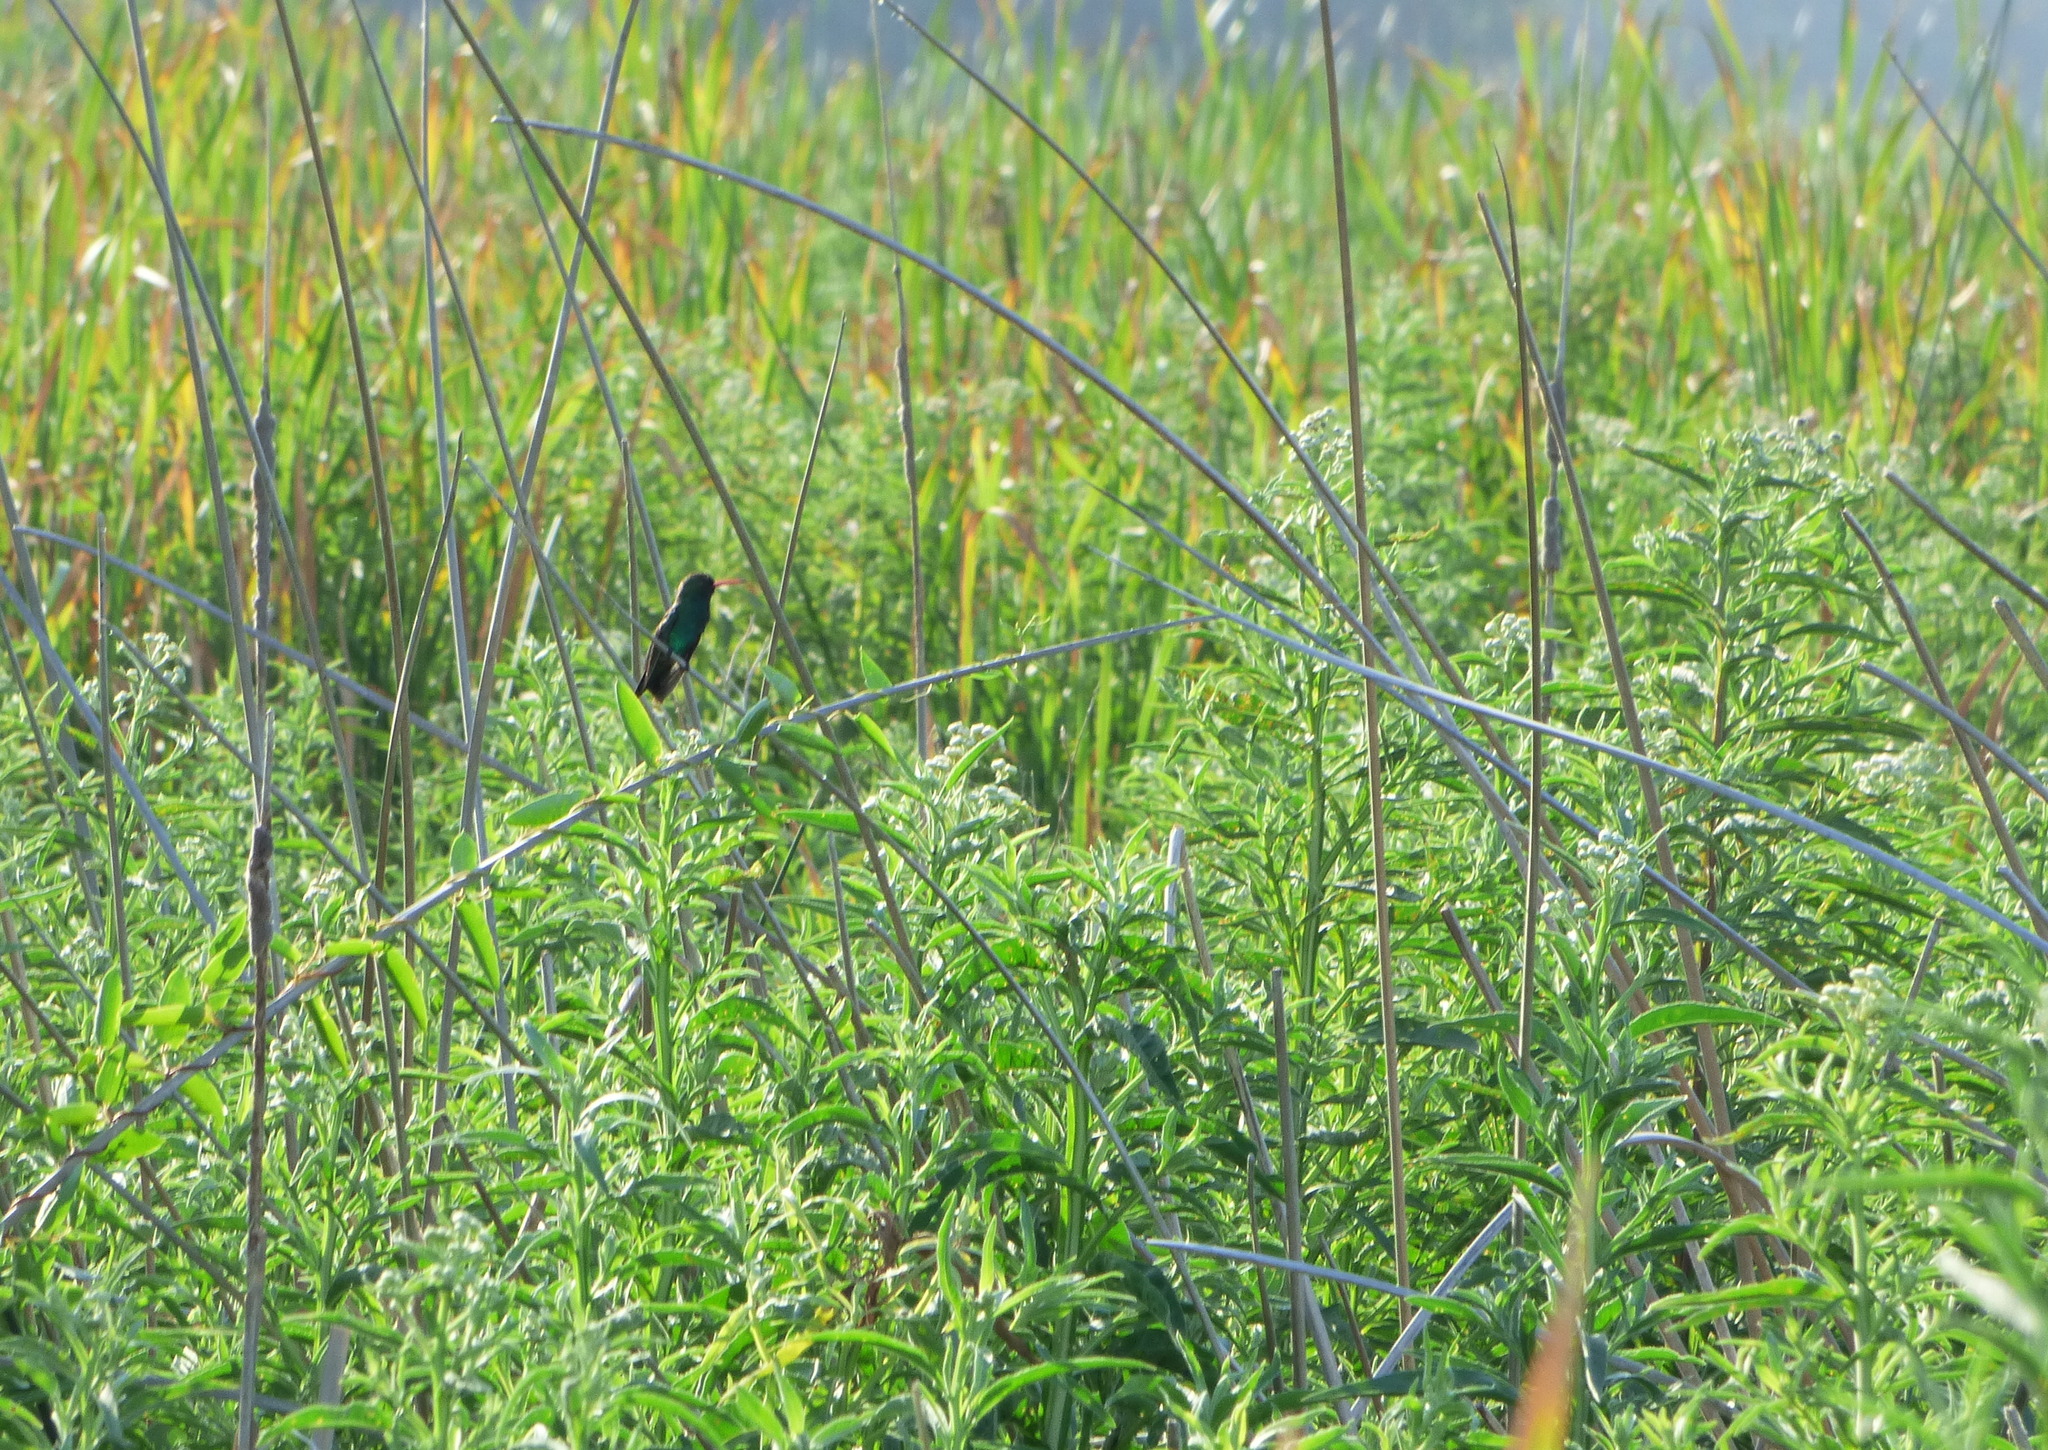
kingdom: Animalia
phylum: Chordata
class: Aves
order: Apodiformes
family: Trochilidae
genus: Chlorostilbon
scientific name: Chlorostilbon lucidus
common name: Glittering-bellied emerald
